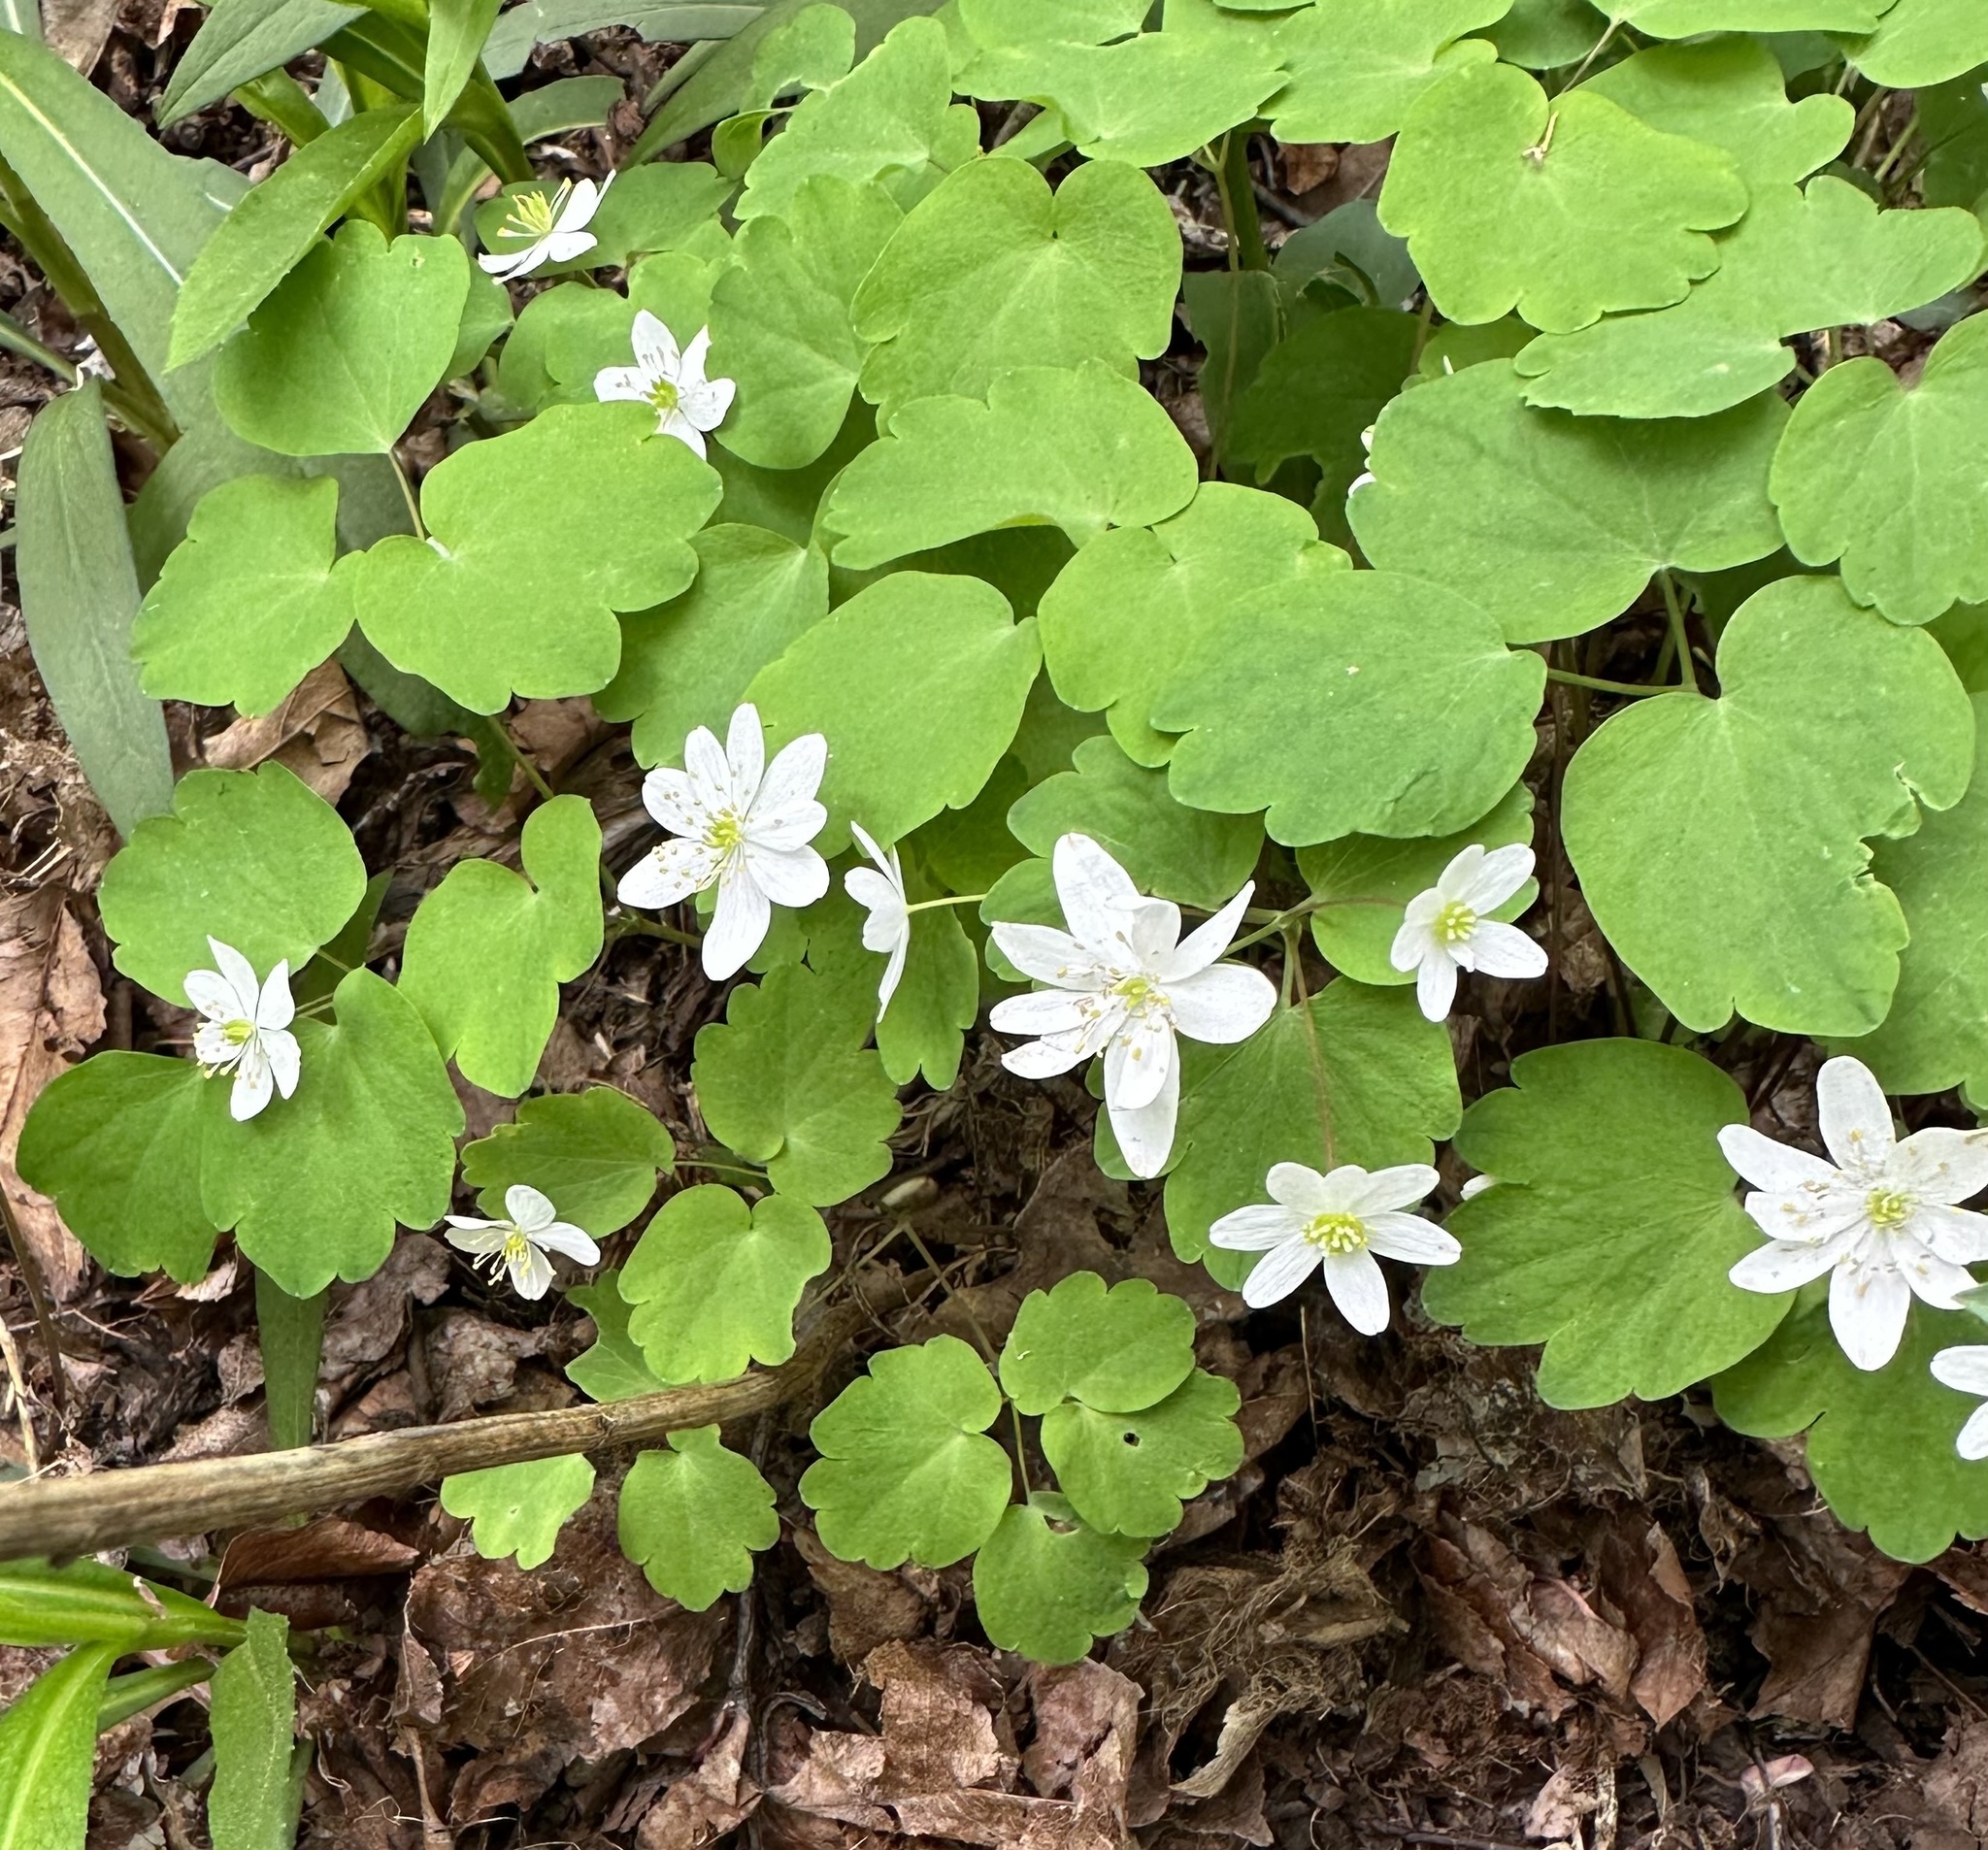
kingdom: Plantae
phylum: Tracheophyta
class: Magnoliopsida
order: Ranunculales
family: Ranunculaceae
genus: Thalictrum
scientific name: Thalictrum thalictroides
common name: Rue-anemone
